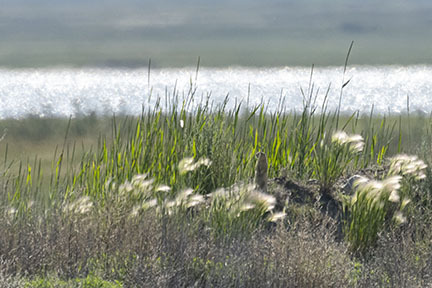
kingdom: Animalia
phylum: Chordata
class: Mammalia
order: Rodentia
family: Sciuridae
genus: Urocitellus
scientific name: Urocitellus richardsonii
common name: Richardson's ground squirrel
